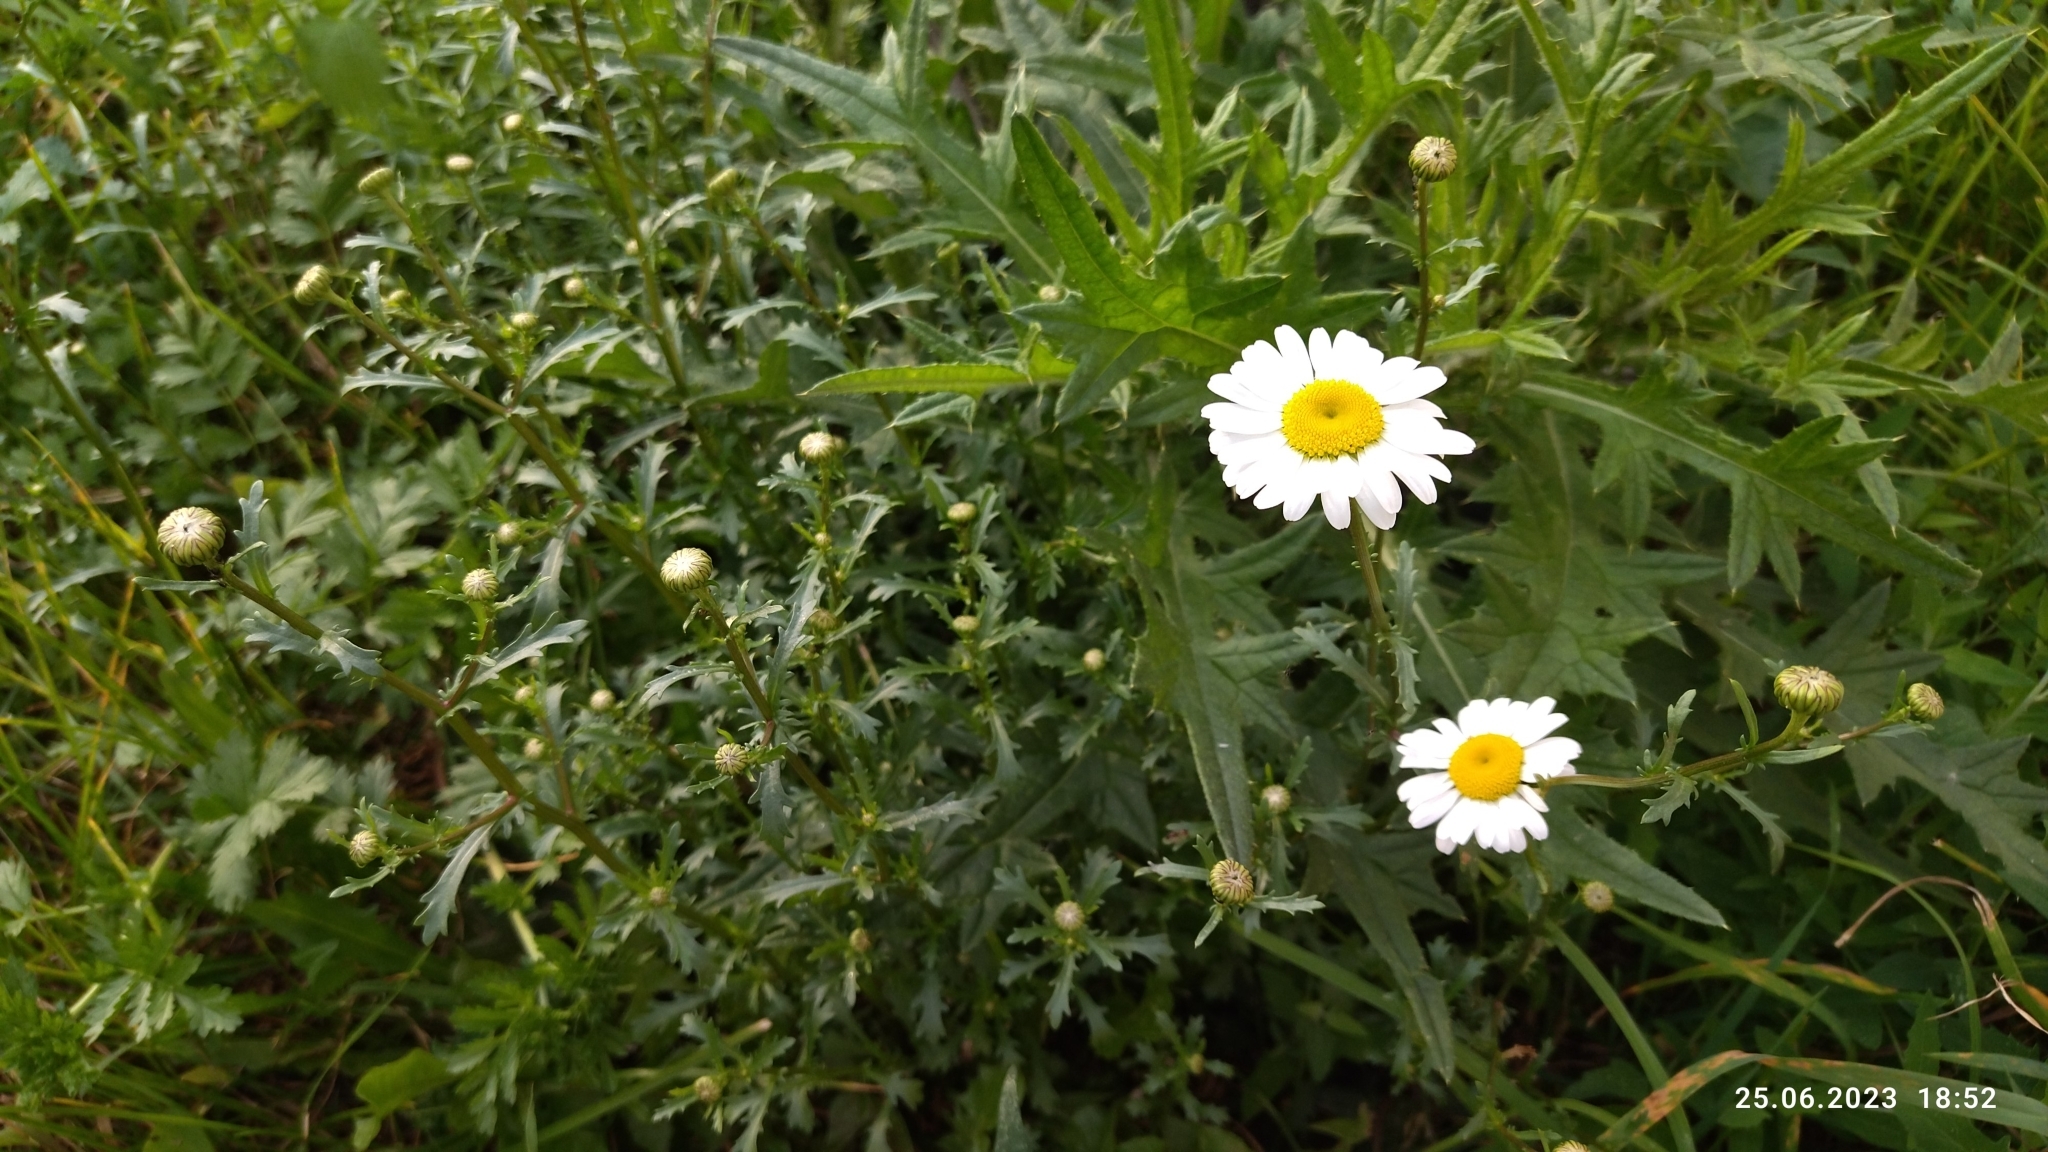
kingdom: Plantae
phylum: Tracheophyta
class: Magnoliopsida
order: Asterales
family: Asteraceae
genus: Leucanthemum
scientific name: Leucanthemum vulgare
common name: Oxeye daisy
